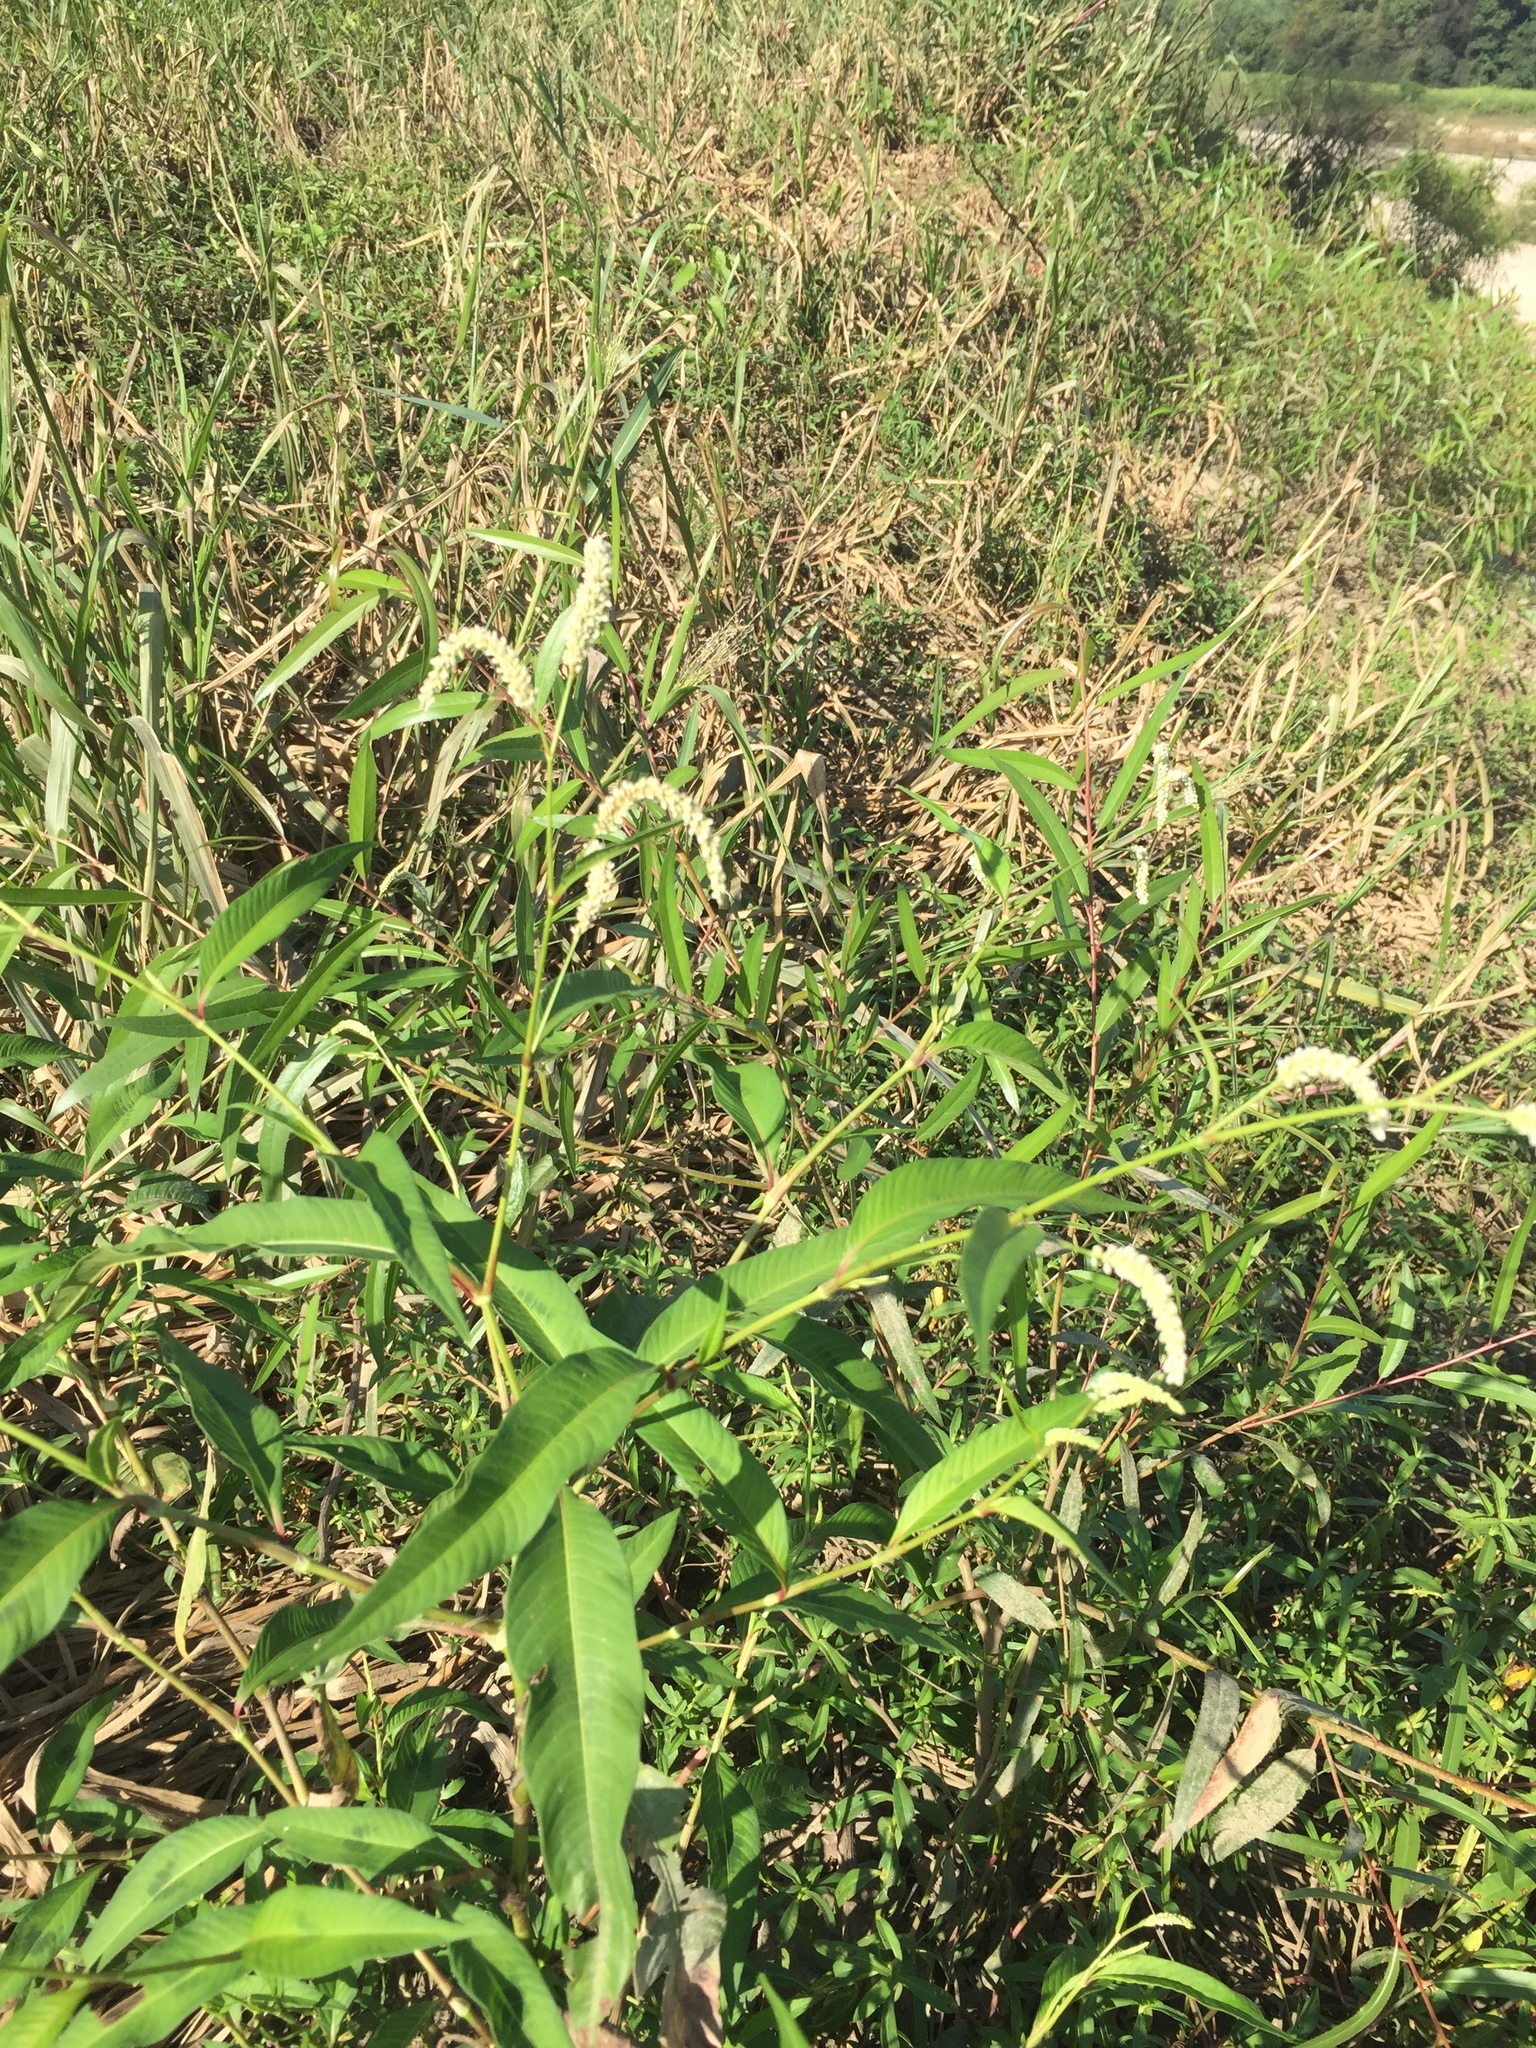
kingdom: Plantae
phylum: Tracheophyta
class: Magnoliopsida
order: Caryophyllales
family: Polygonaceae
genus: Persicaria
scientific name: Persicaria lapathifolia
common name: Curlytop knotweed
